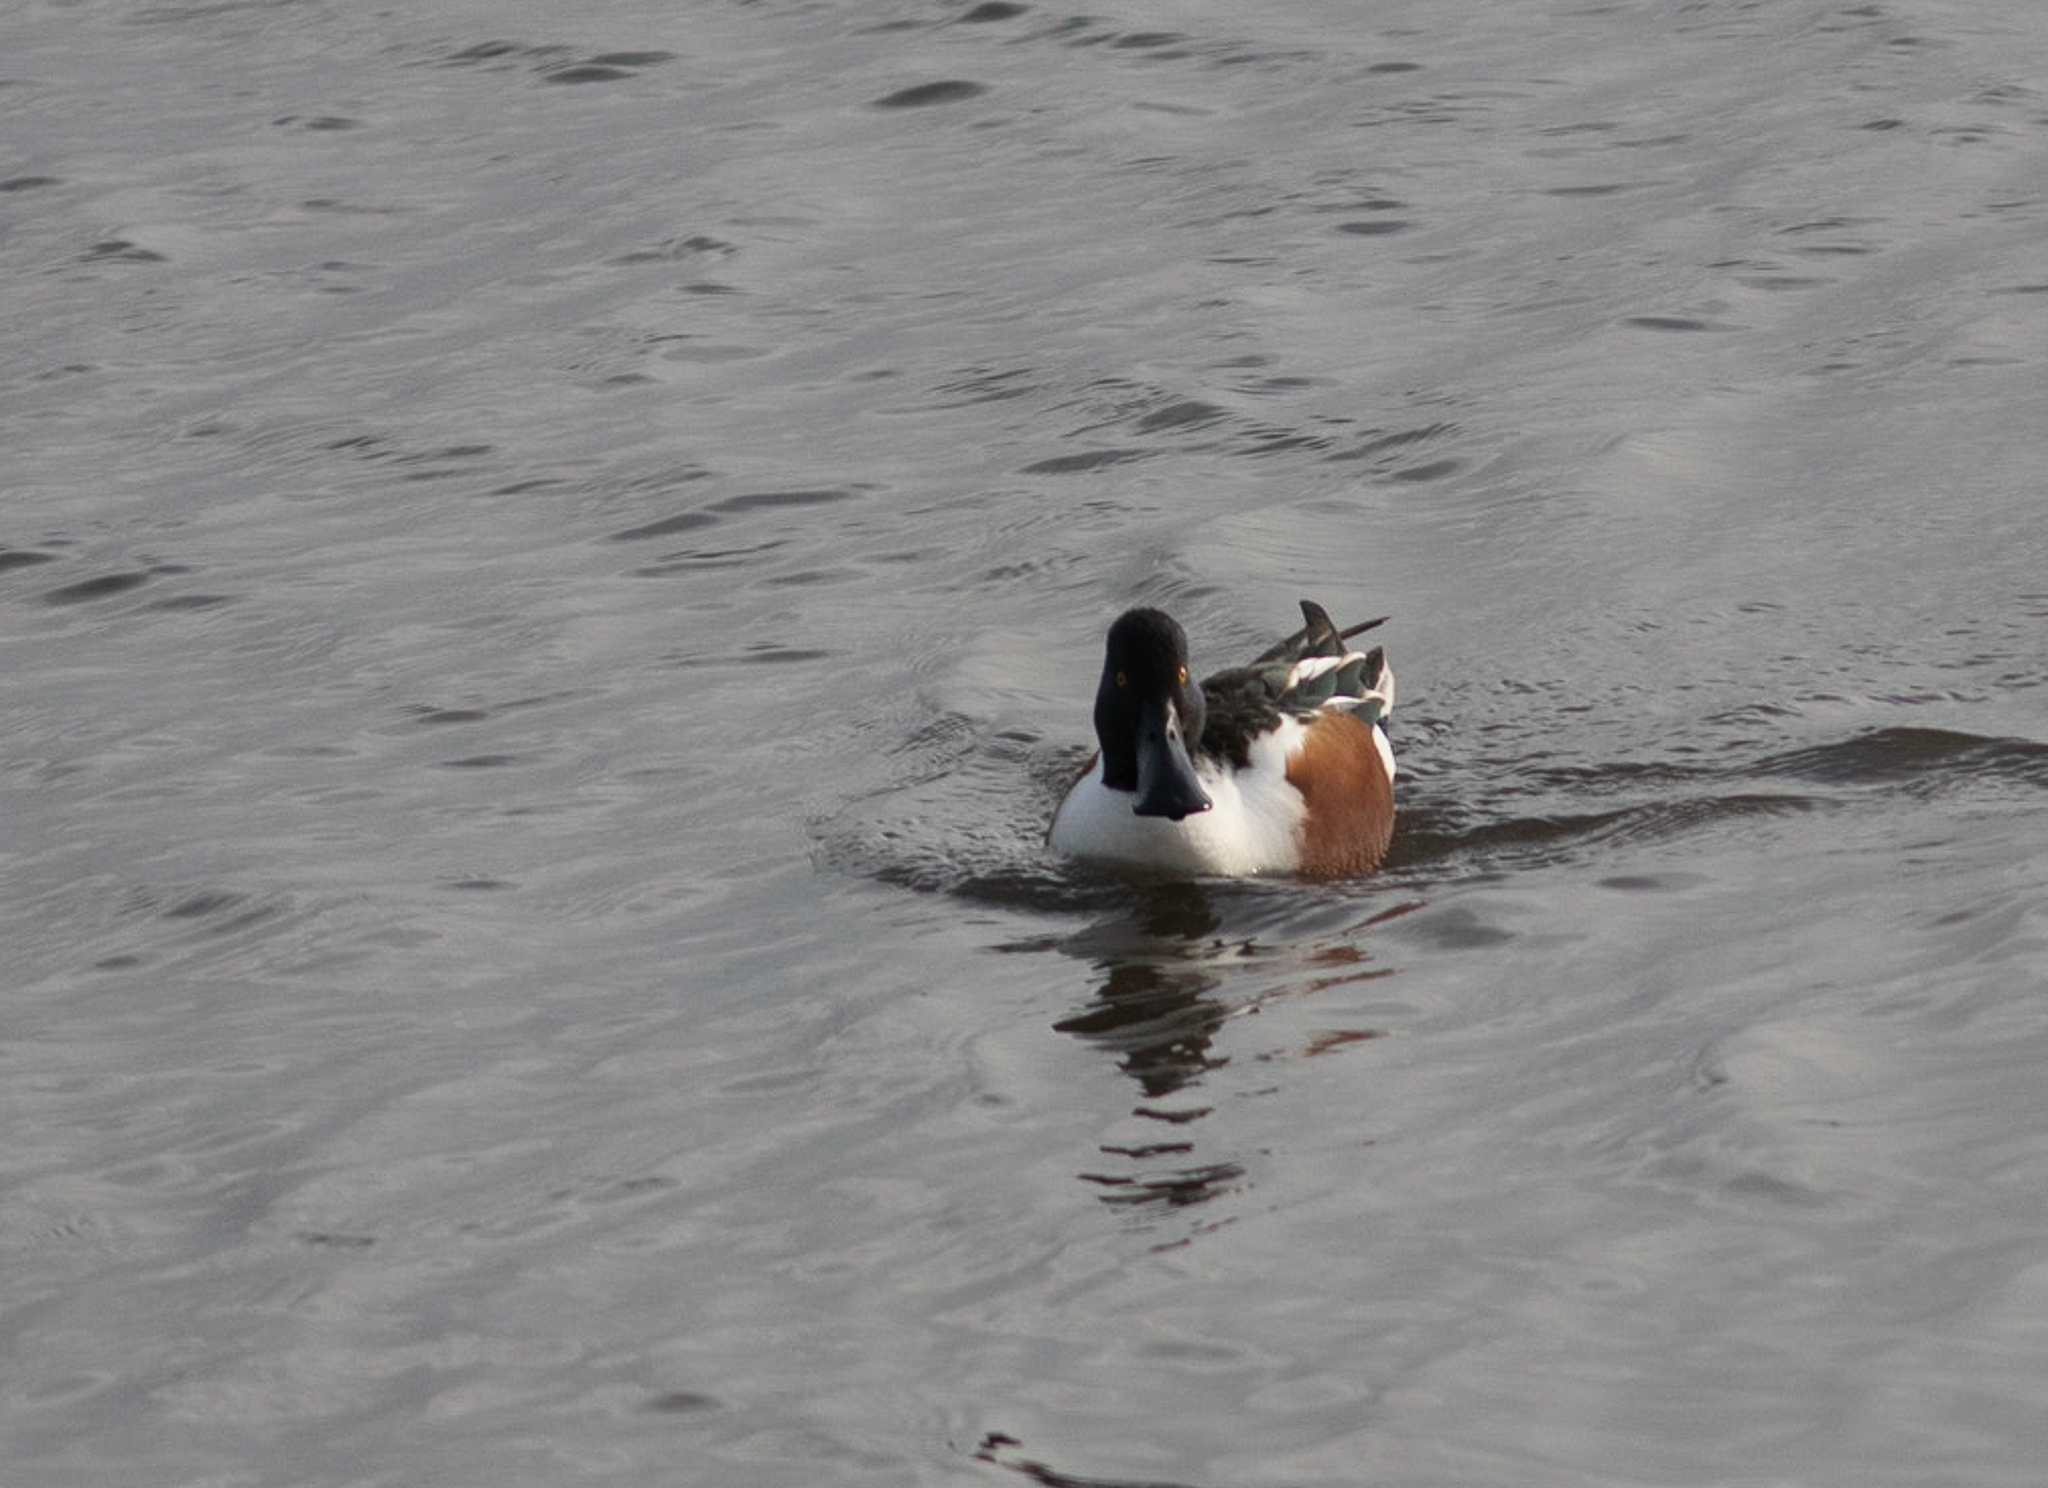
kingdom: Animalia
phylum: Chordata
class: Aves
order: Anseriformes
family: Anatidae
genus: Spatula
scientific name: Spatula clypeata
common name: Northern shoveler
